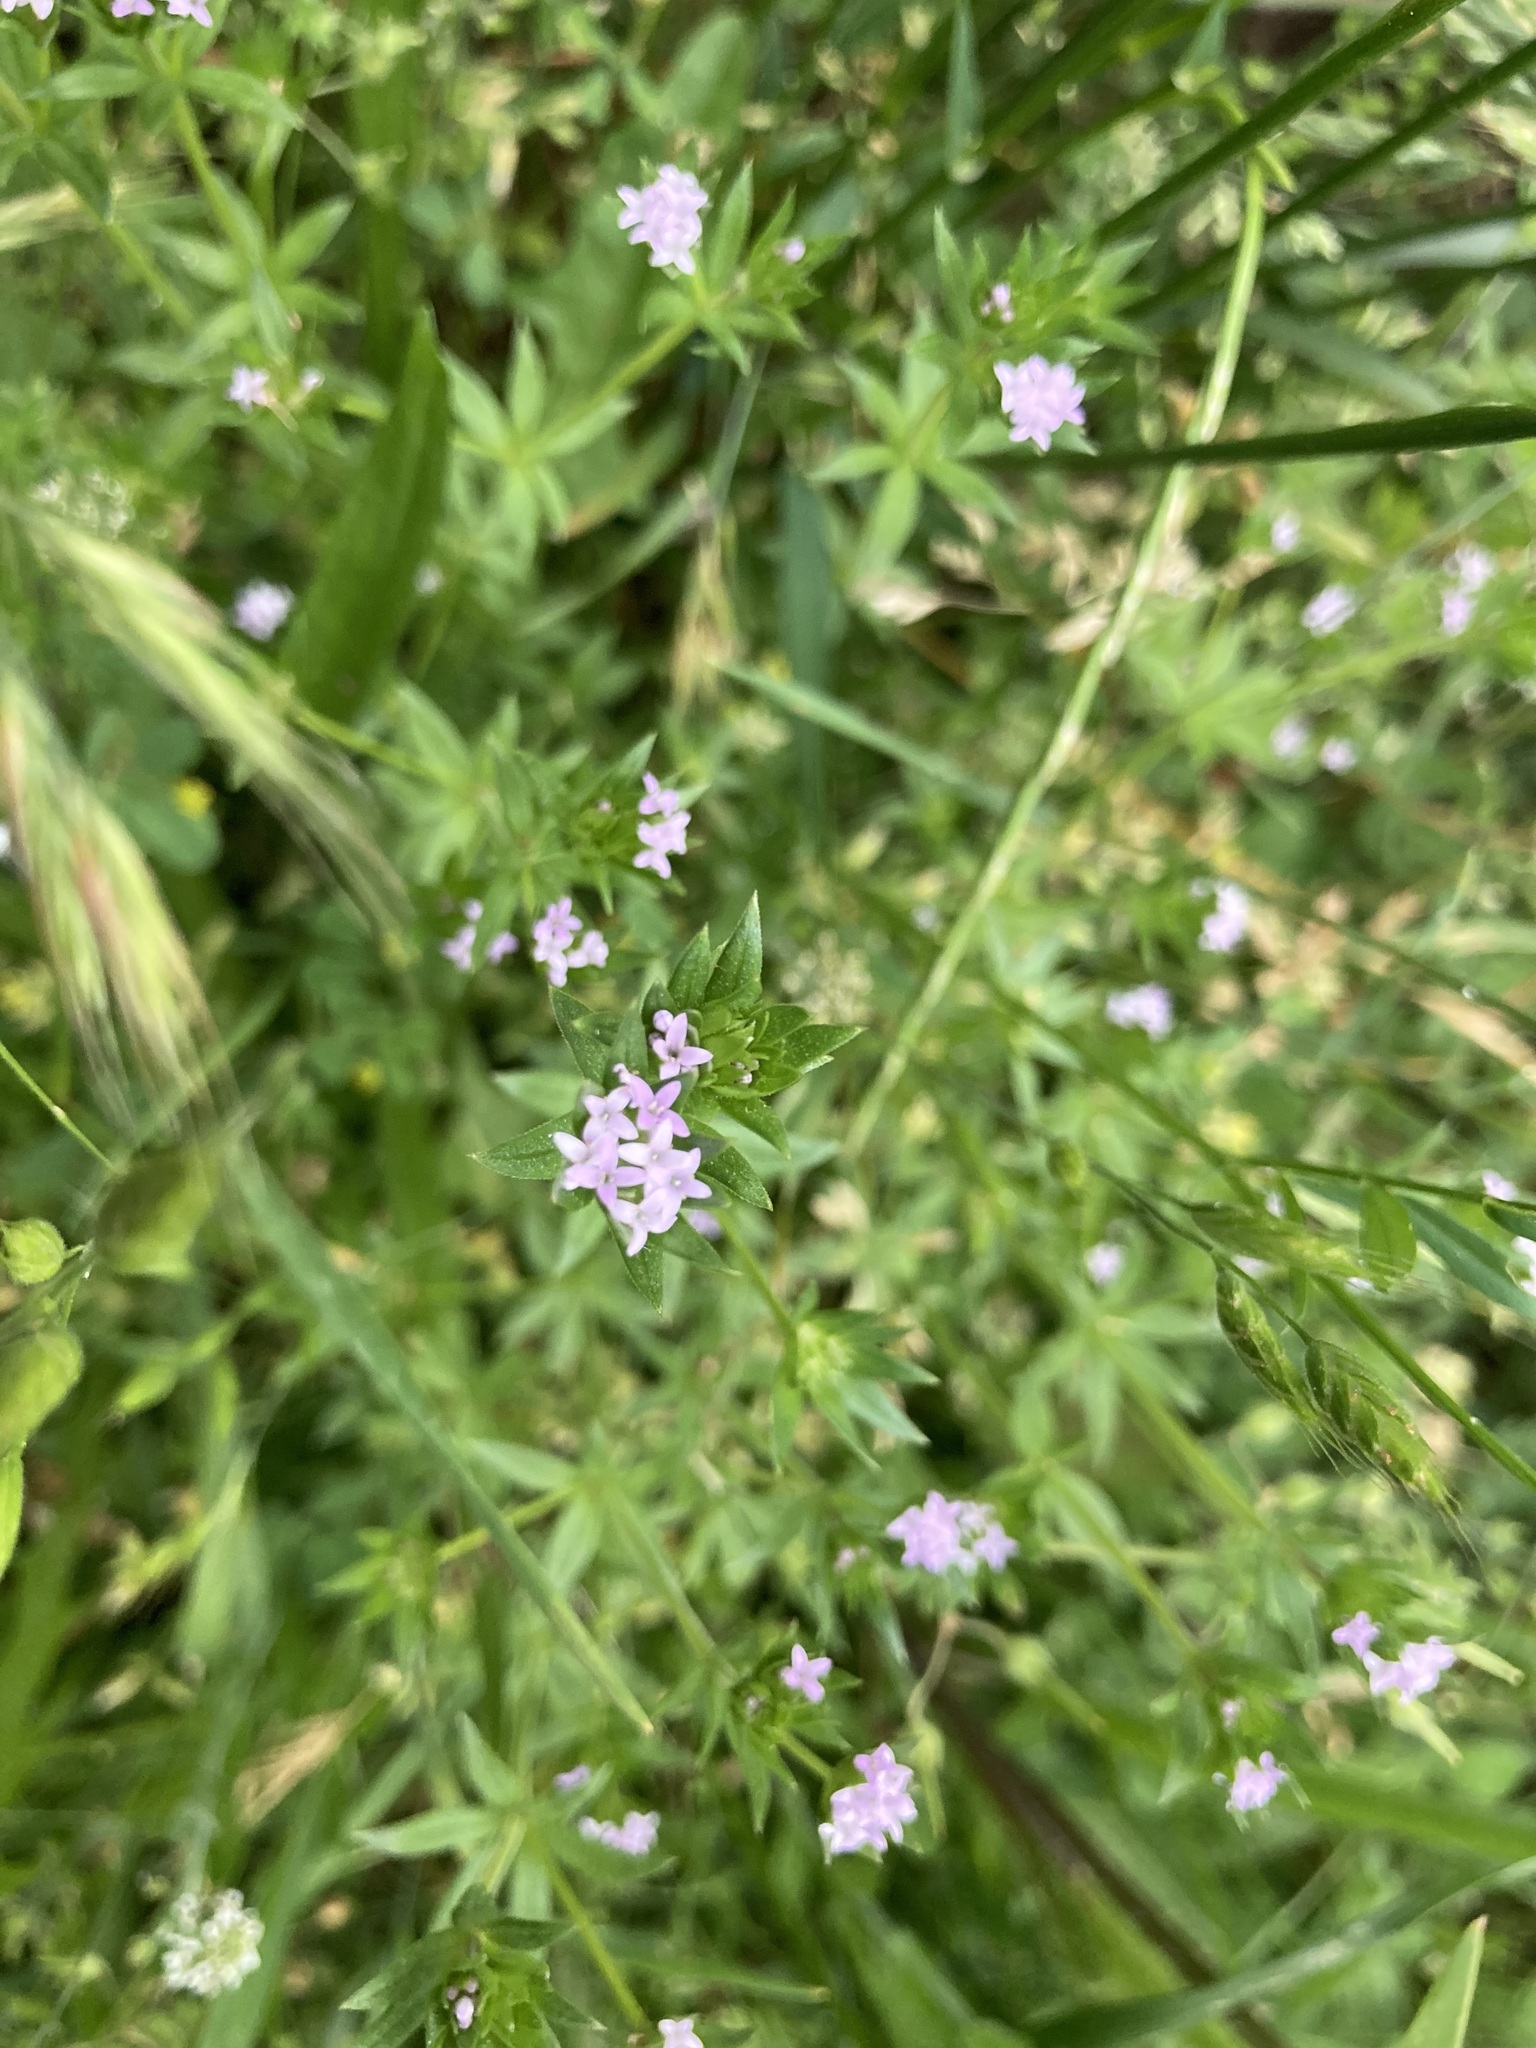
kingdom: Plantae
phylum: Tracheophyta
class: Magnoliopsida
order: Gentianales
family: Rubiaceae
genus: Sherardia
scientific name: Sherardia arvensis
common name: Field madder
